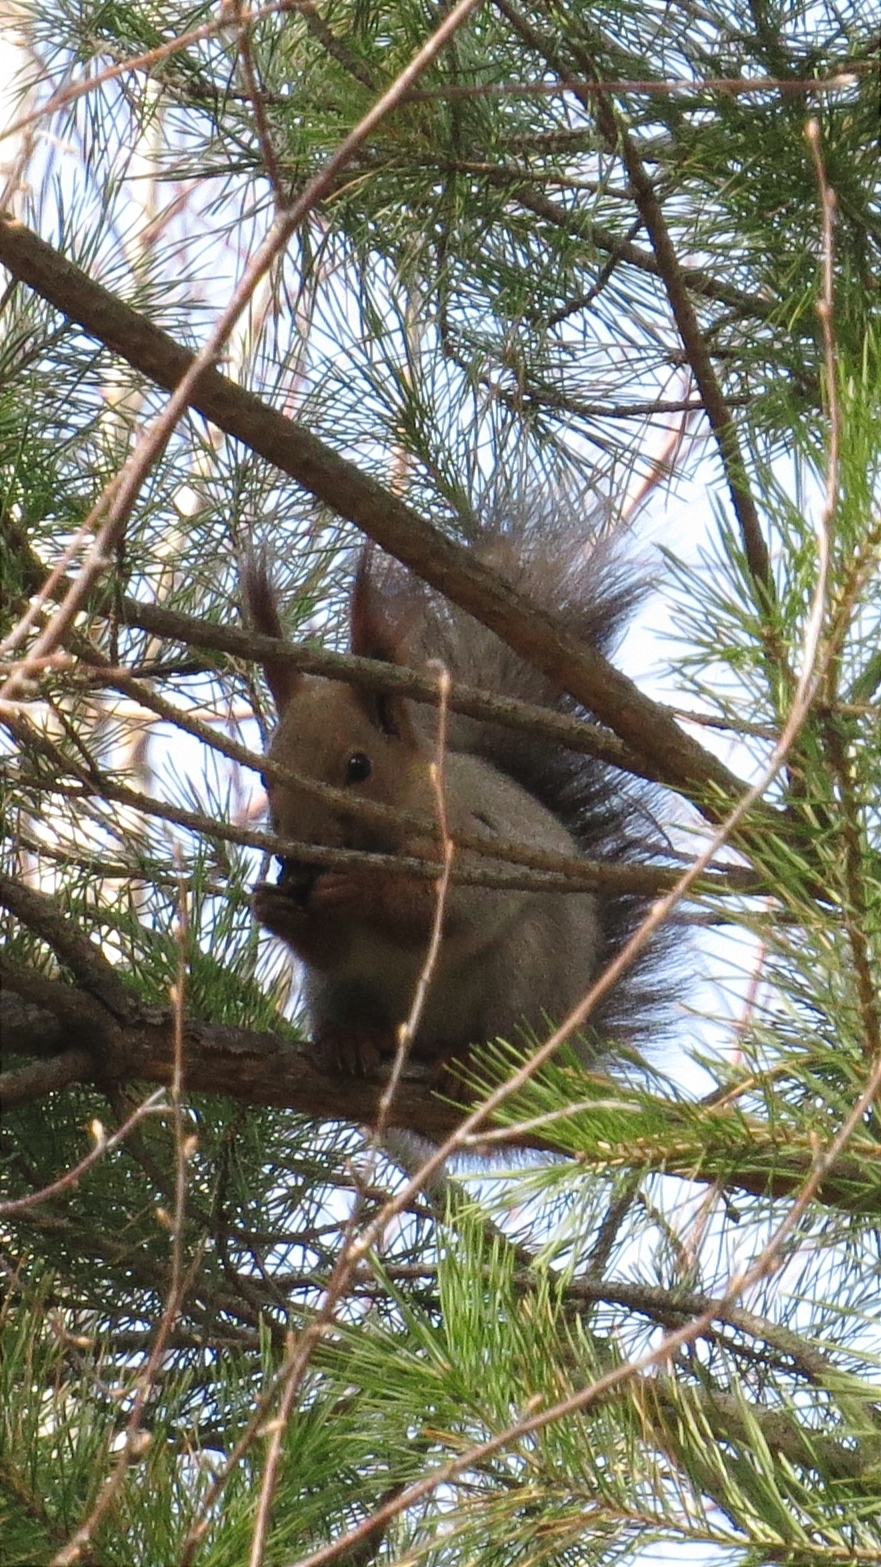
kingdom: Animalia
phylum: Chordata
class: Mammalia
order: Rodentia
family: Sciuridae
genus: Sciurus
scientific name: Sciurus vulgaris
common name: Eurasian red squirrel
